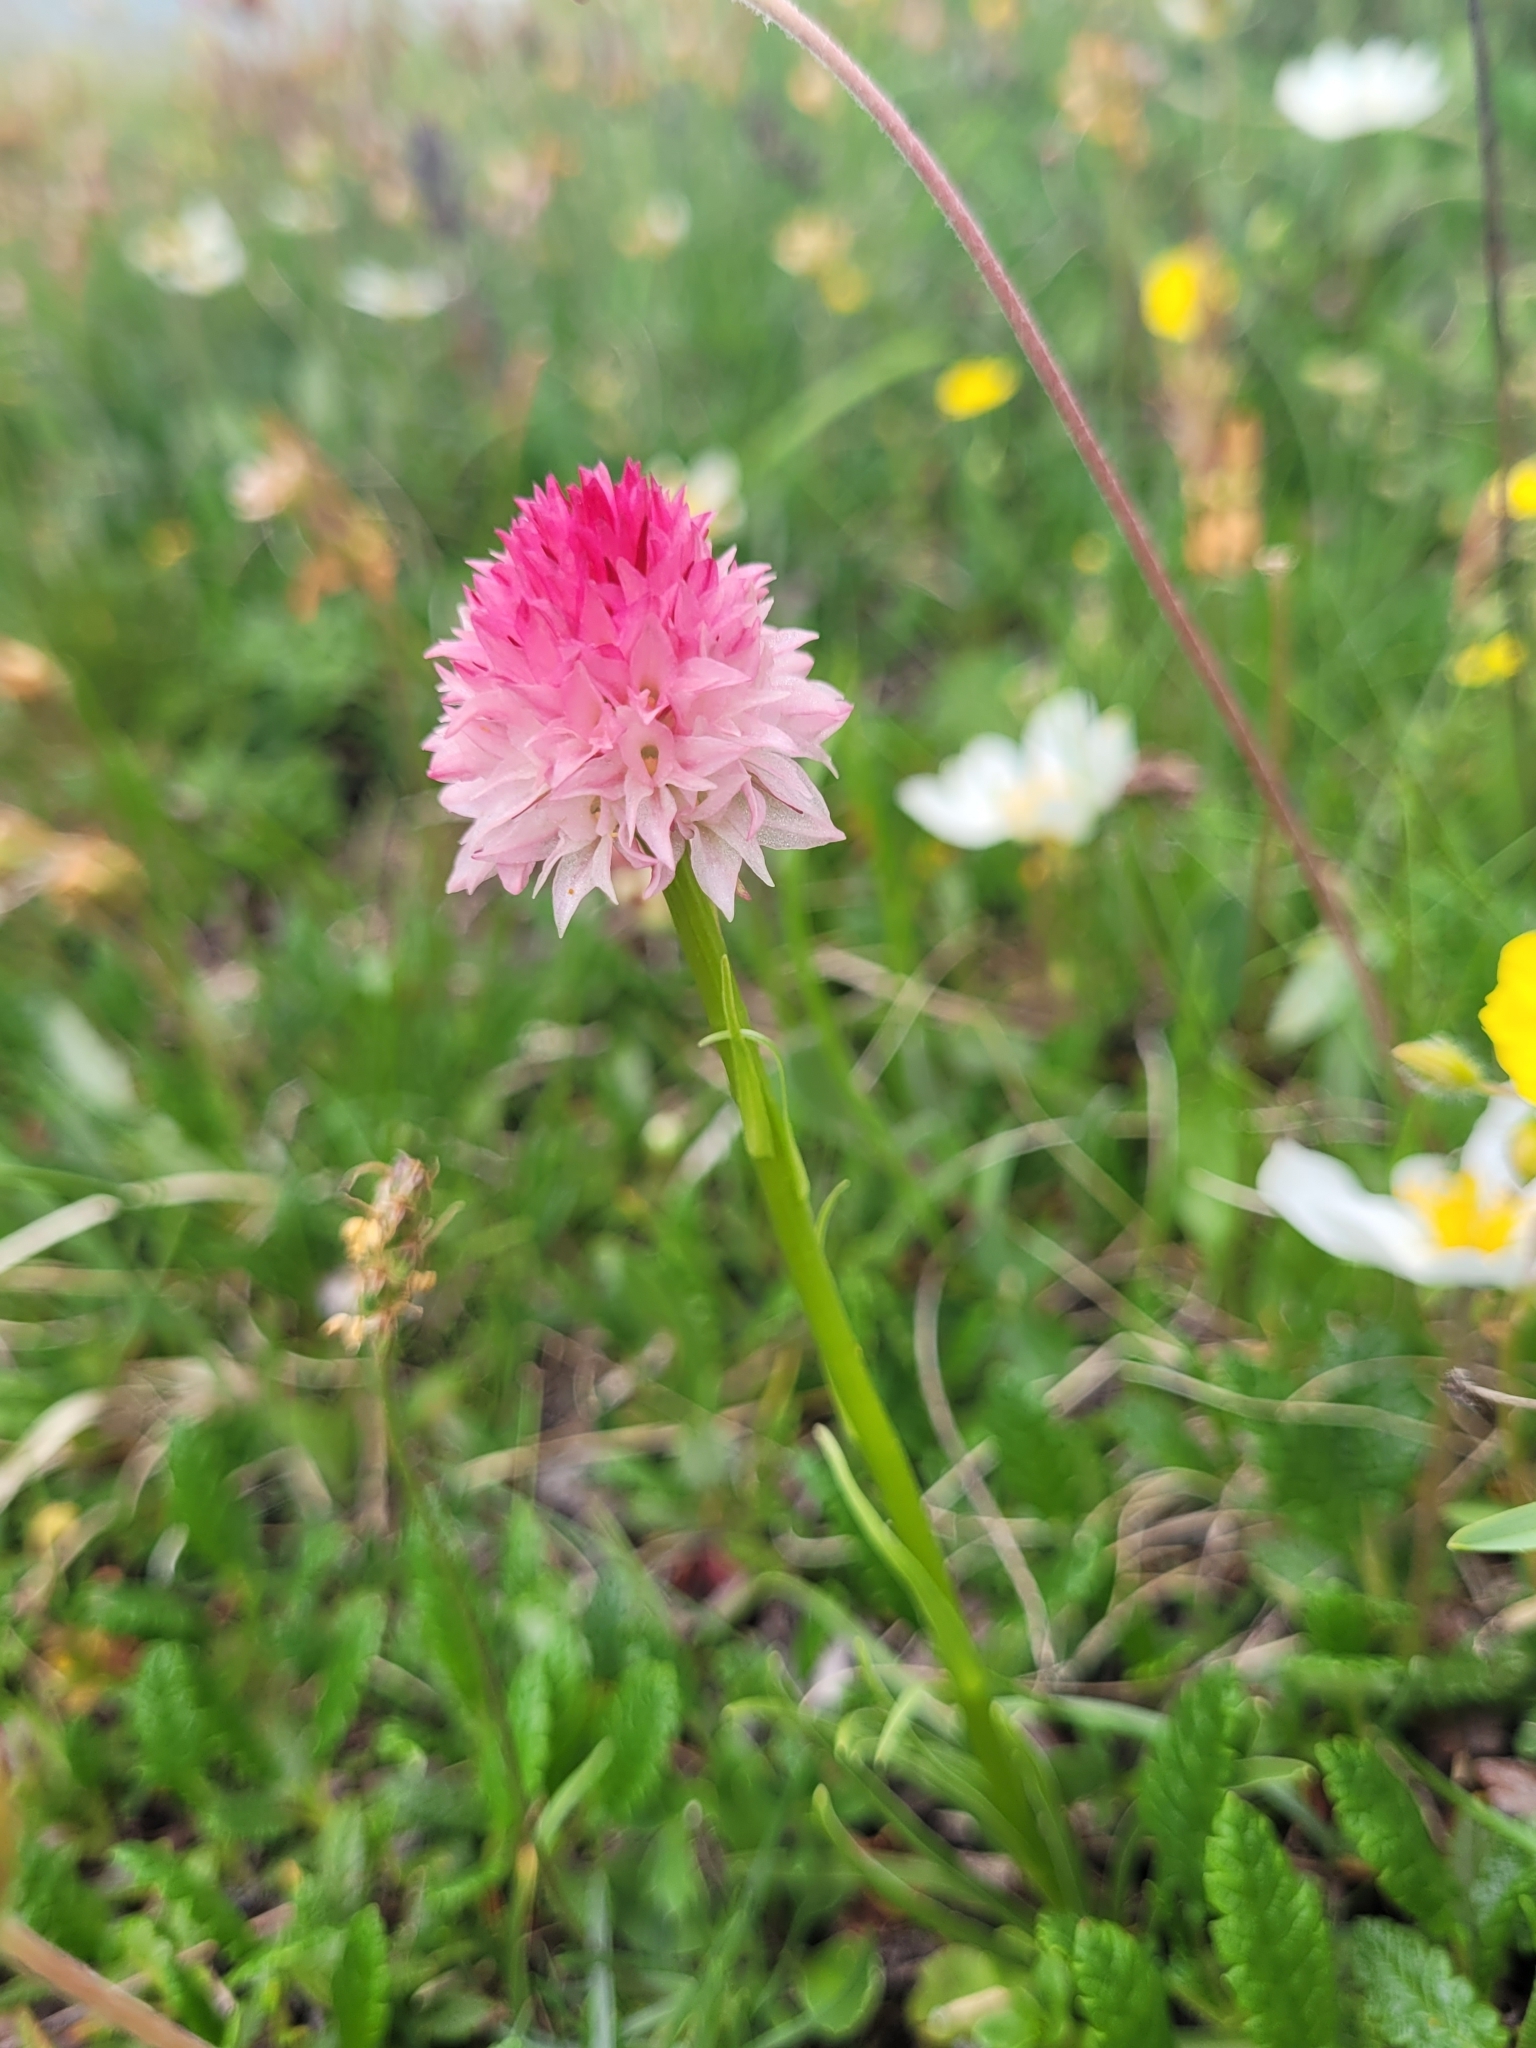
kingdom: Plantae
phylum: Tracheophyta
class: Liliopsida
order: Asparagales
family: Orchidaceae
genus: Gymnadenia
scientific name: Gymnadenia corneliana
